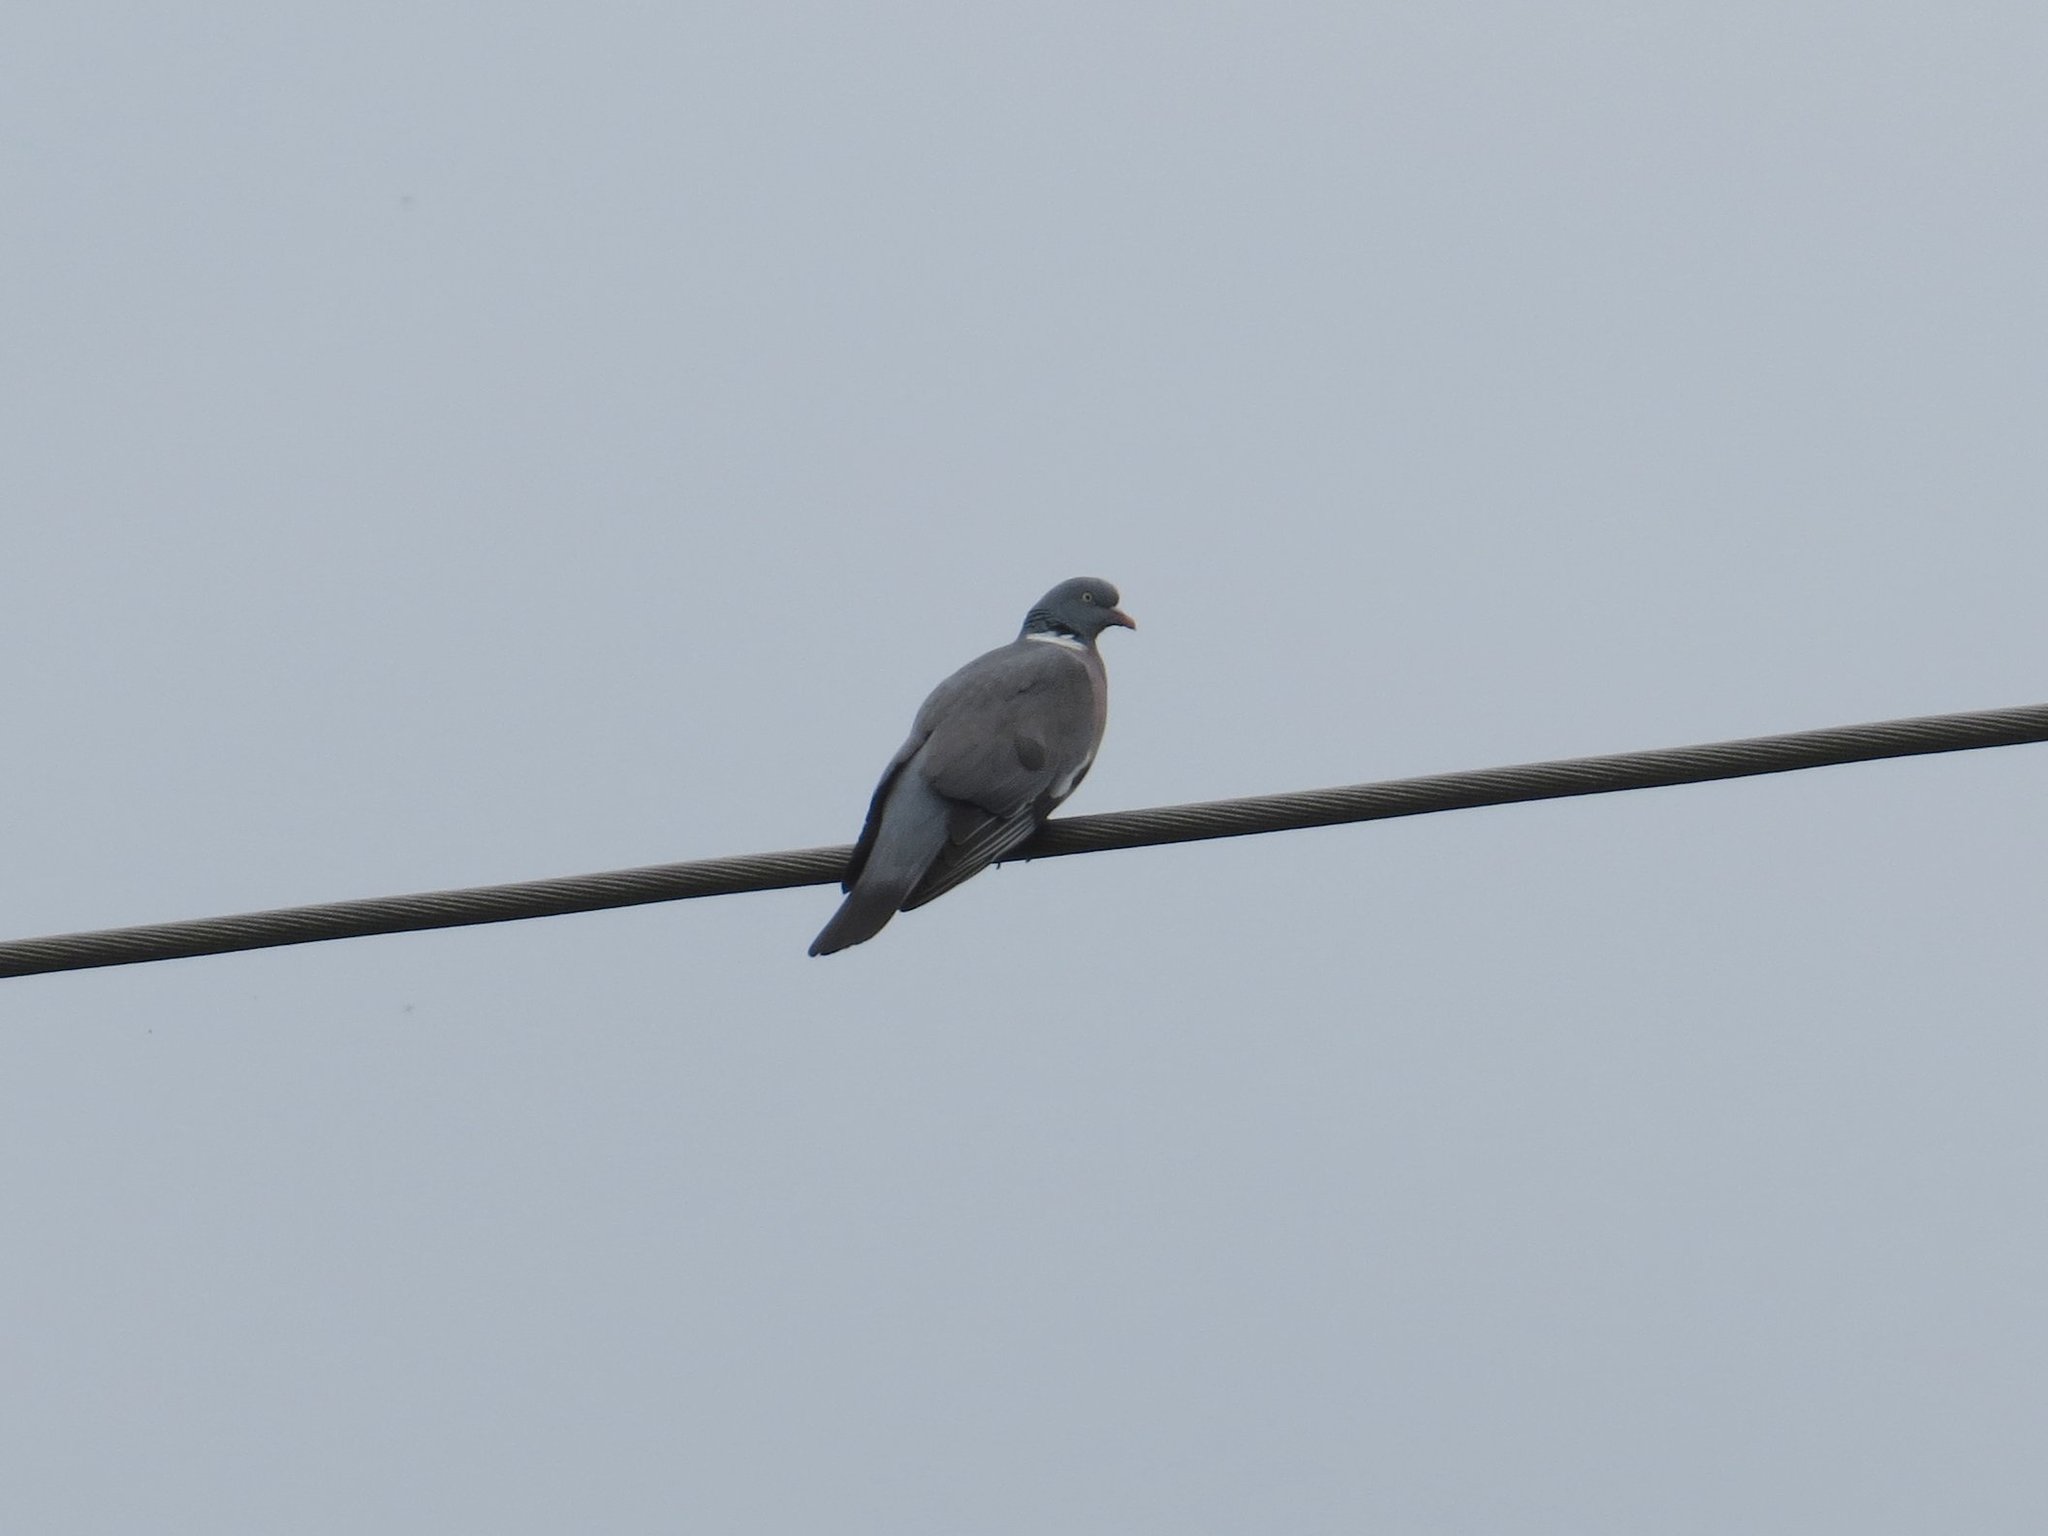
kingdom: Animalia
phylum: Chordata
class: Aves
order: Columbiformes
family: Columbidae
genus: Columba
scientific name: Columba palumbus
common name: Common wood pigeon
